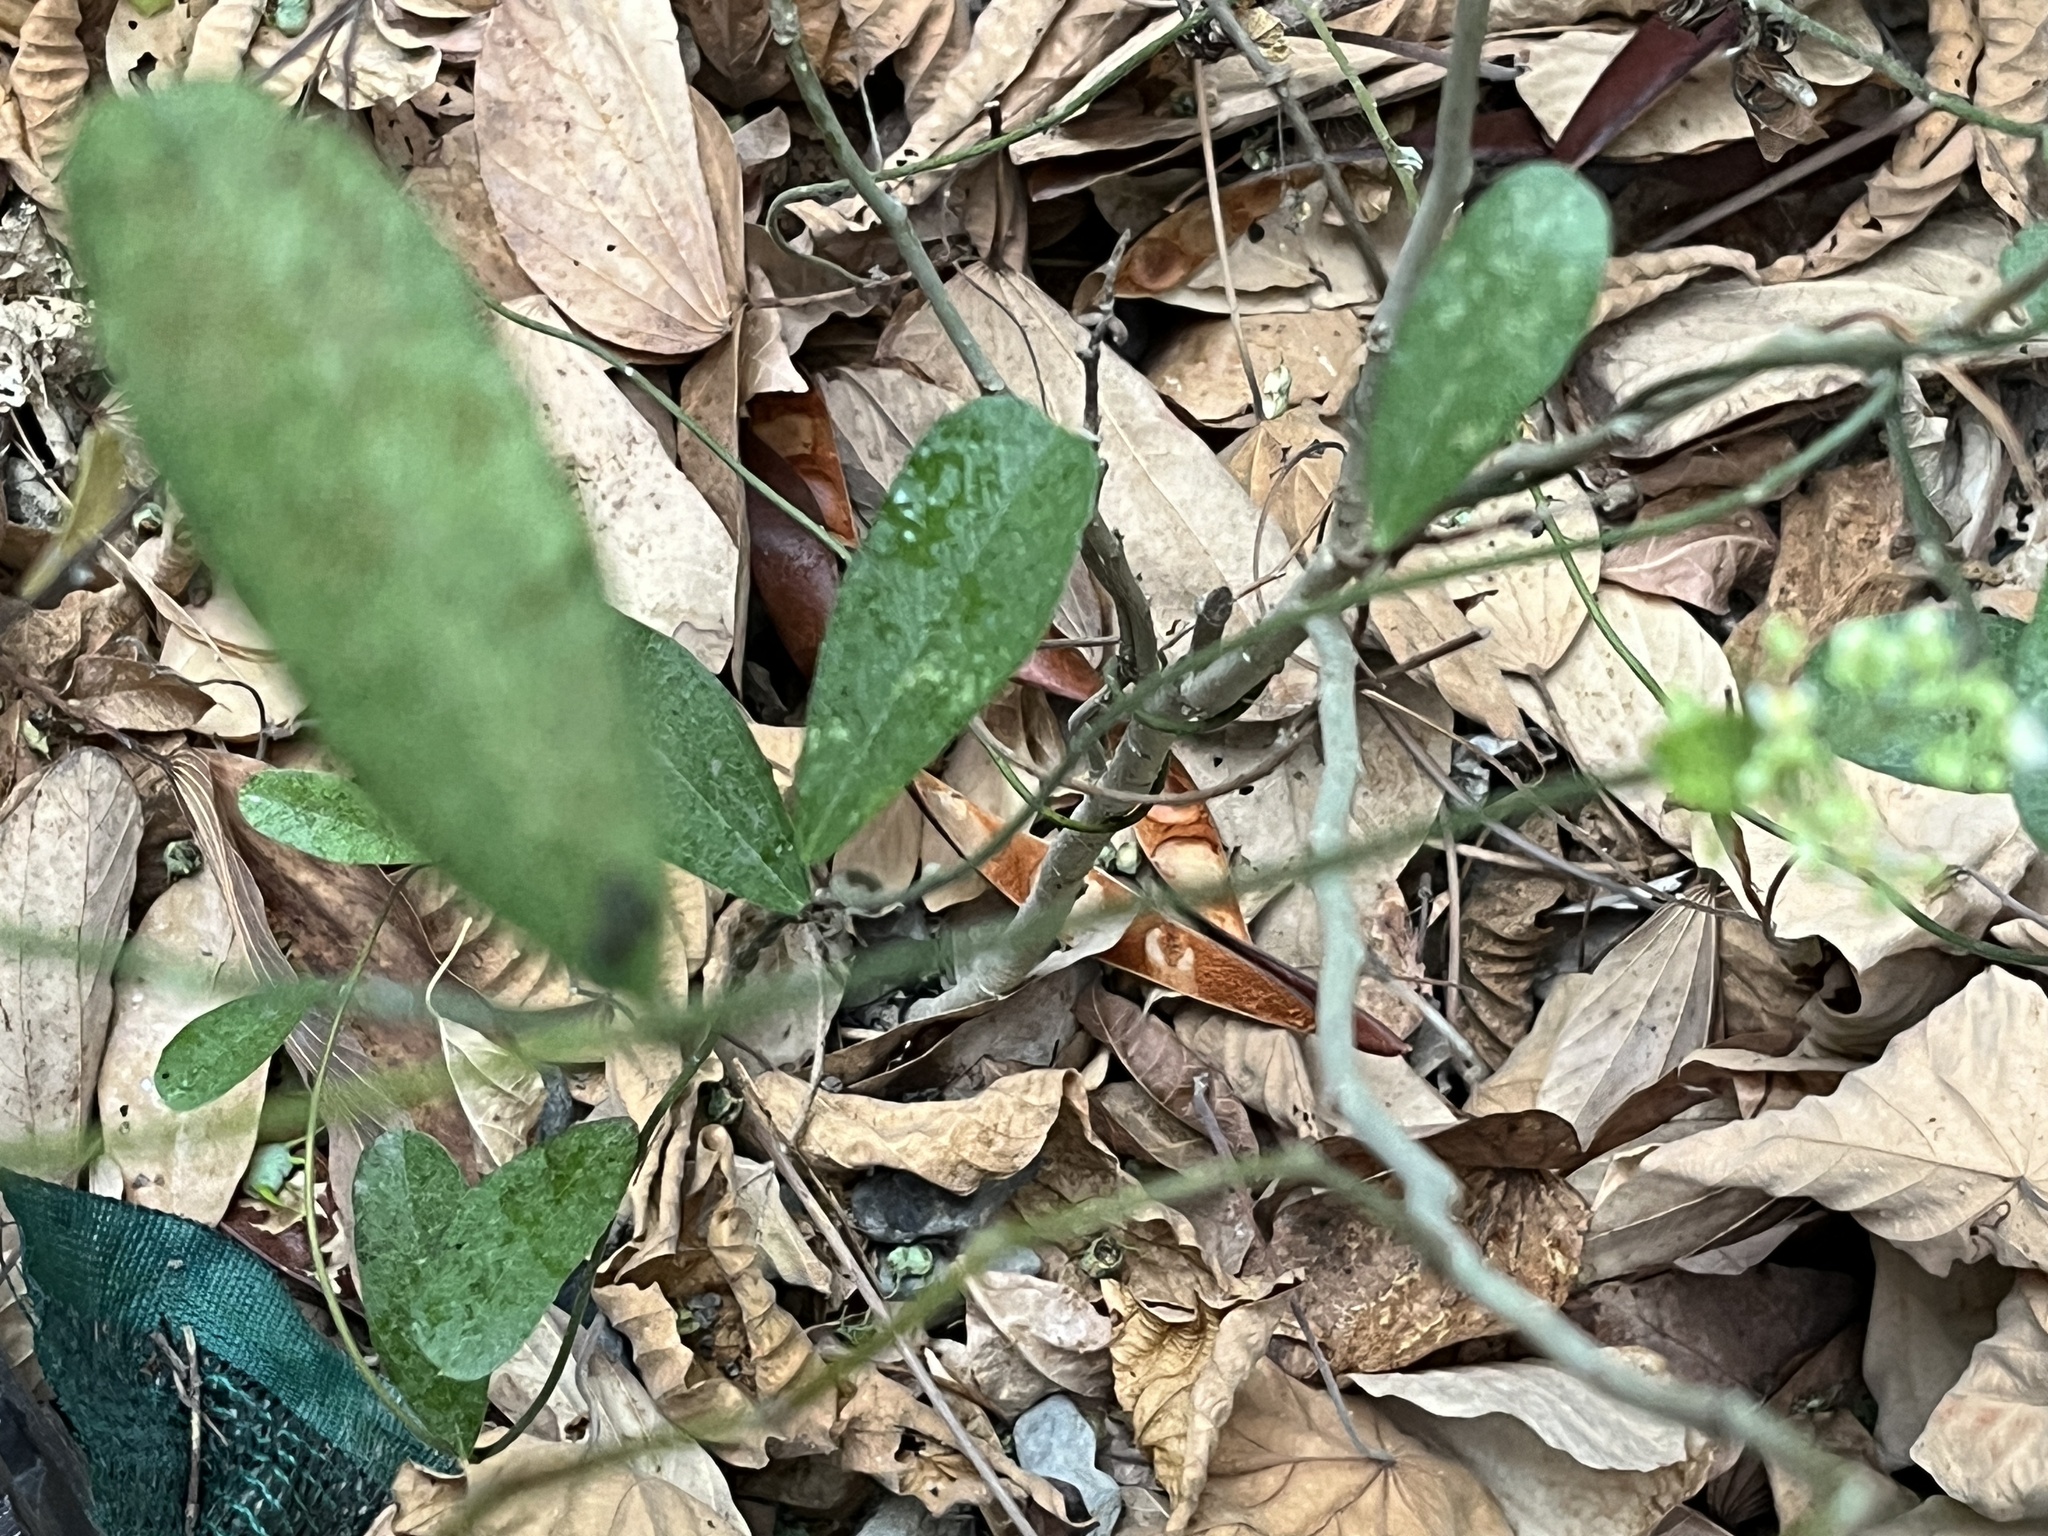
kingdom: Plantae
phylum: Tracheophyta
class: Magnoliopsida
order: Ranunculales
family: Menispermaceae
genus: Cocculus
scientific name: Cocculus orbiculatus
